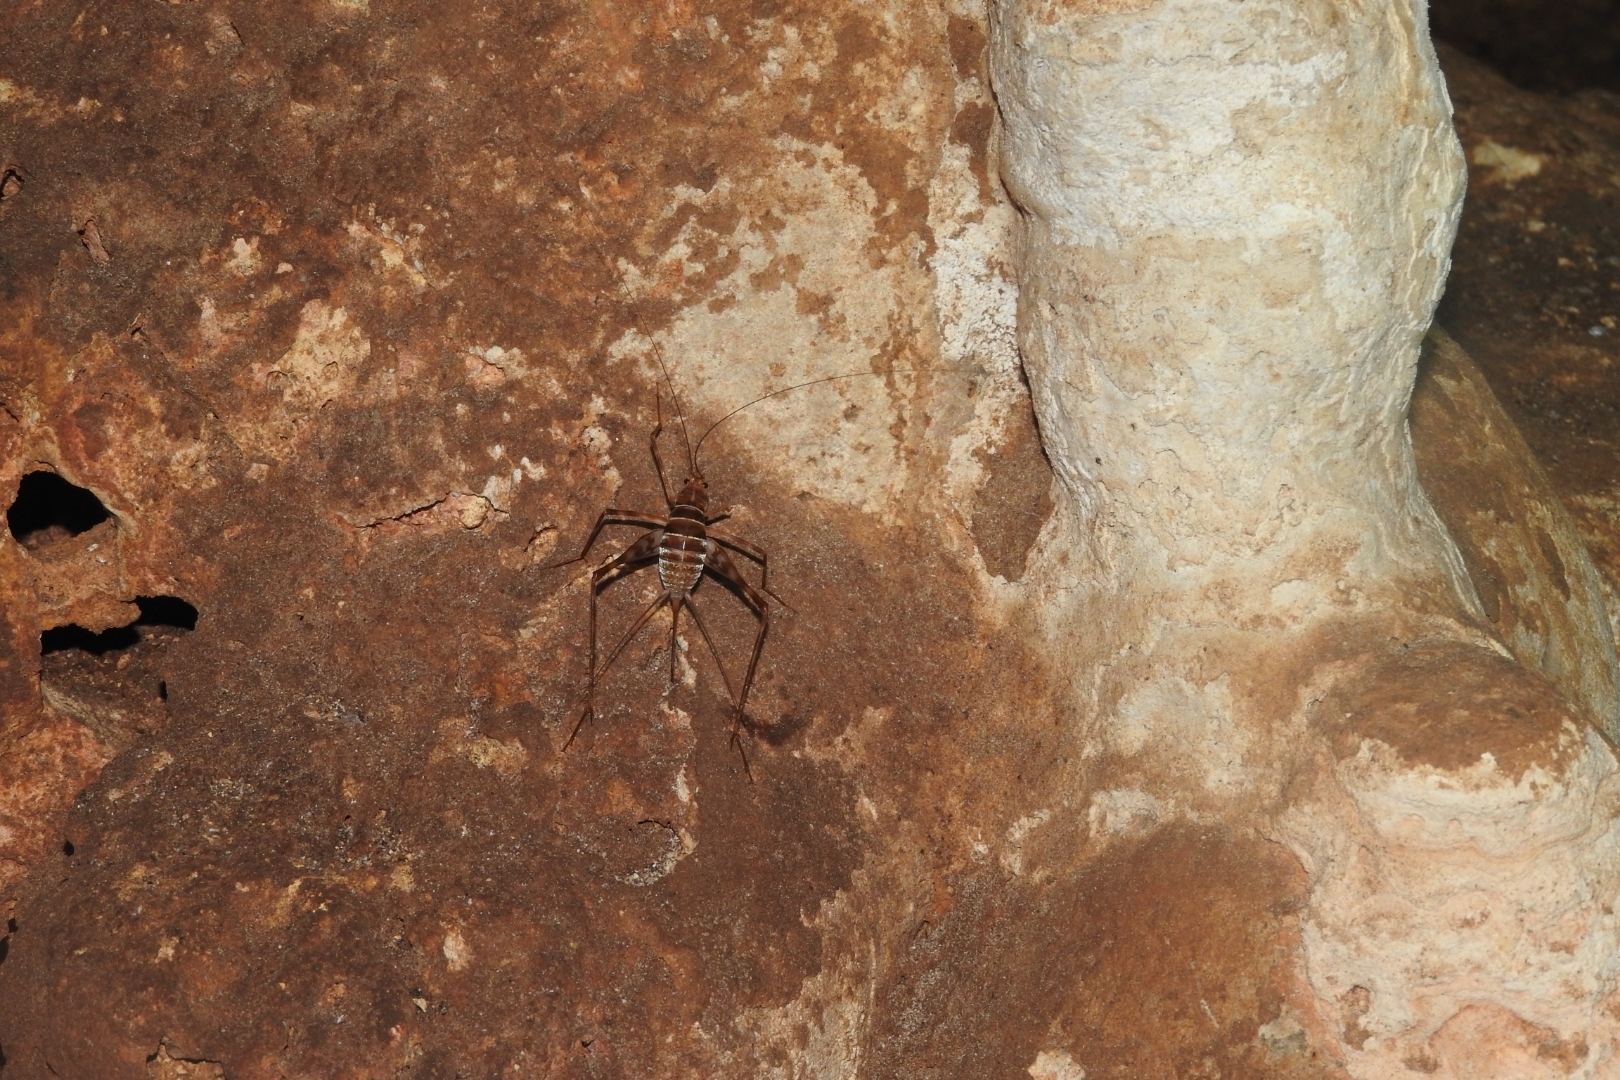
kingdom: Animalia
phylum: Arthropoda
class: Insecta
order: Orthoptera
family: Phalangopsidae
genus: Mayagryllus
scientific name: Mayagryllus yucatanus
